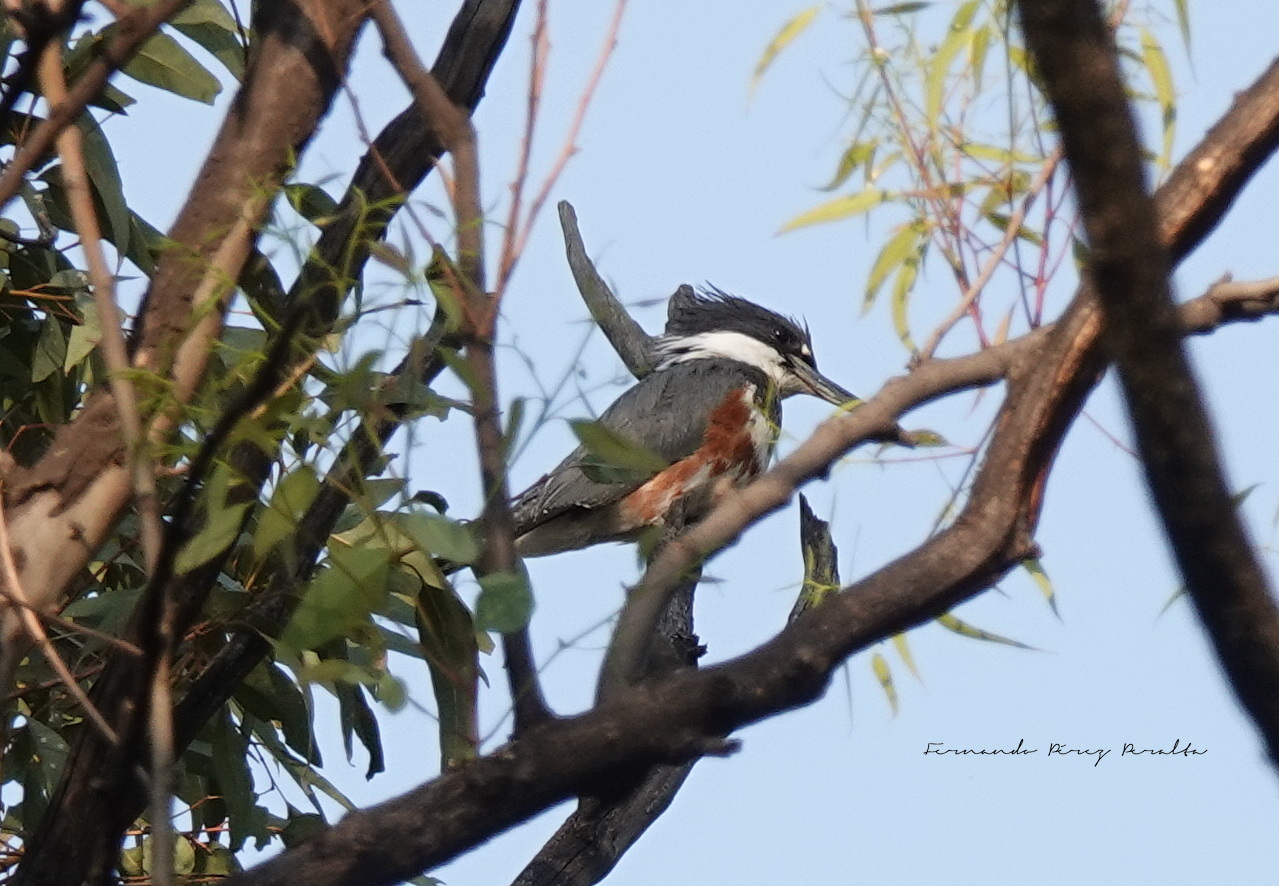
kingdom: Animalia
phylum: Chordata
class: Aves
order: Coraciiformes
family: Alcedinidae
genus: Megaceryle
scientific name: Megaceryle alcyon
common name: Belted kingfisher
